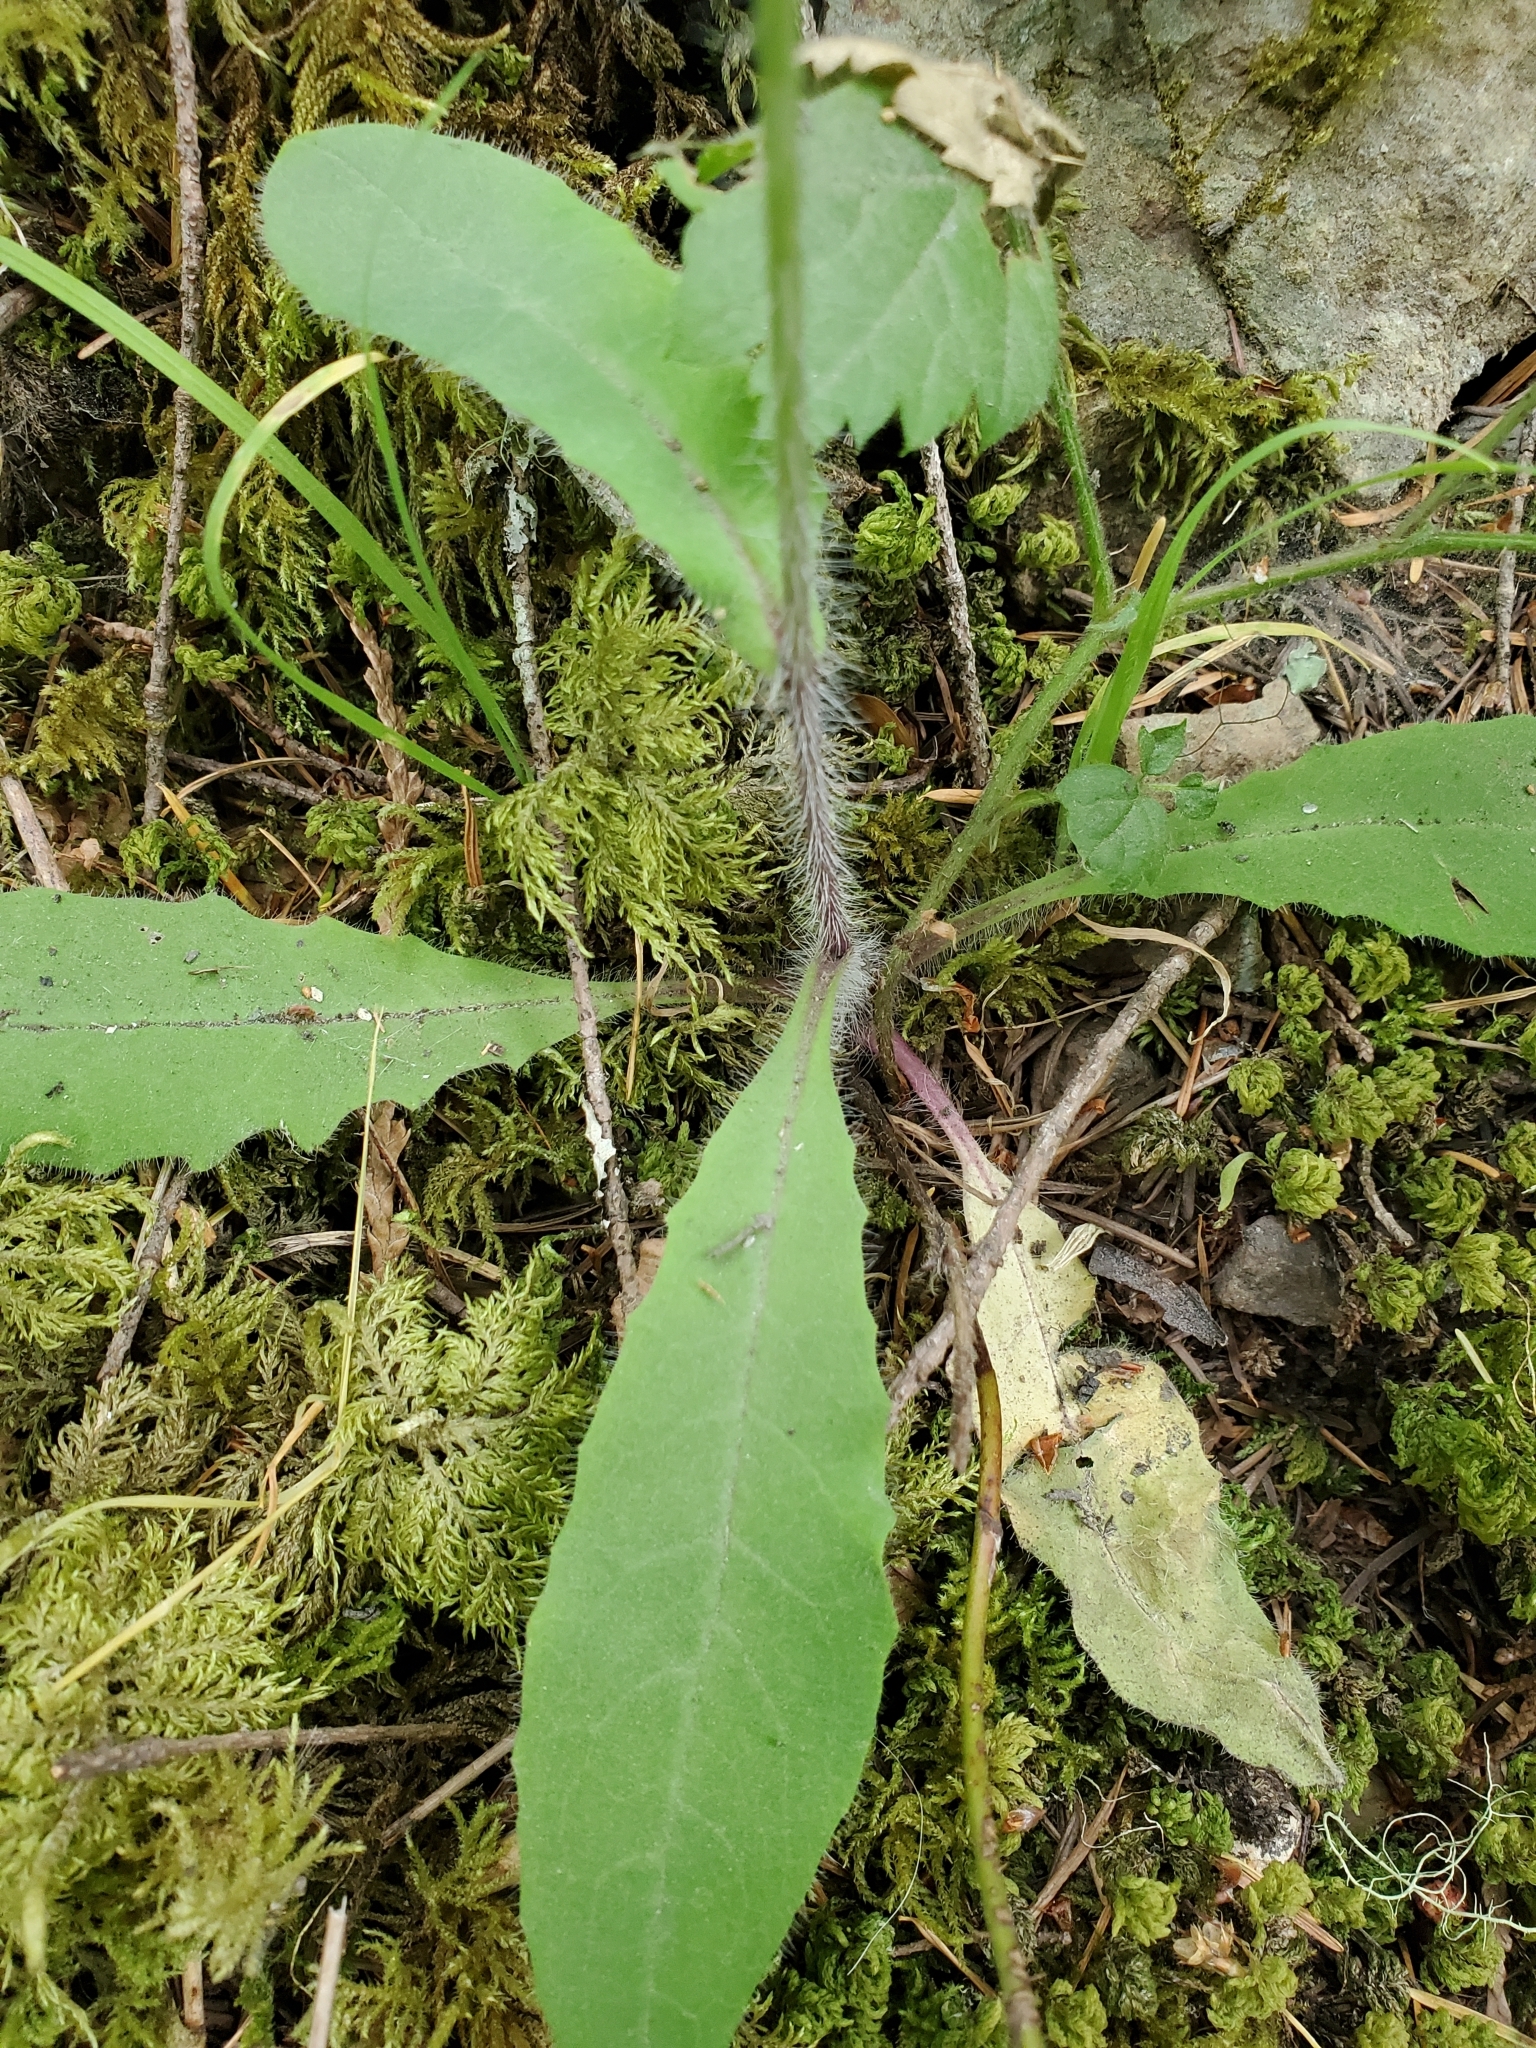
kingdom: Plantae
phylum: Tracheophyta
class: Magnoliopsida
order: Asterales
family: Asteraceae
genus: Hieracium
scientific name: Hieracium albiflorum
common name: White hawkweed
